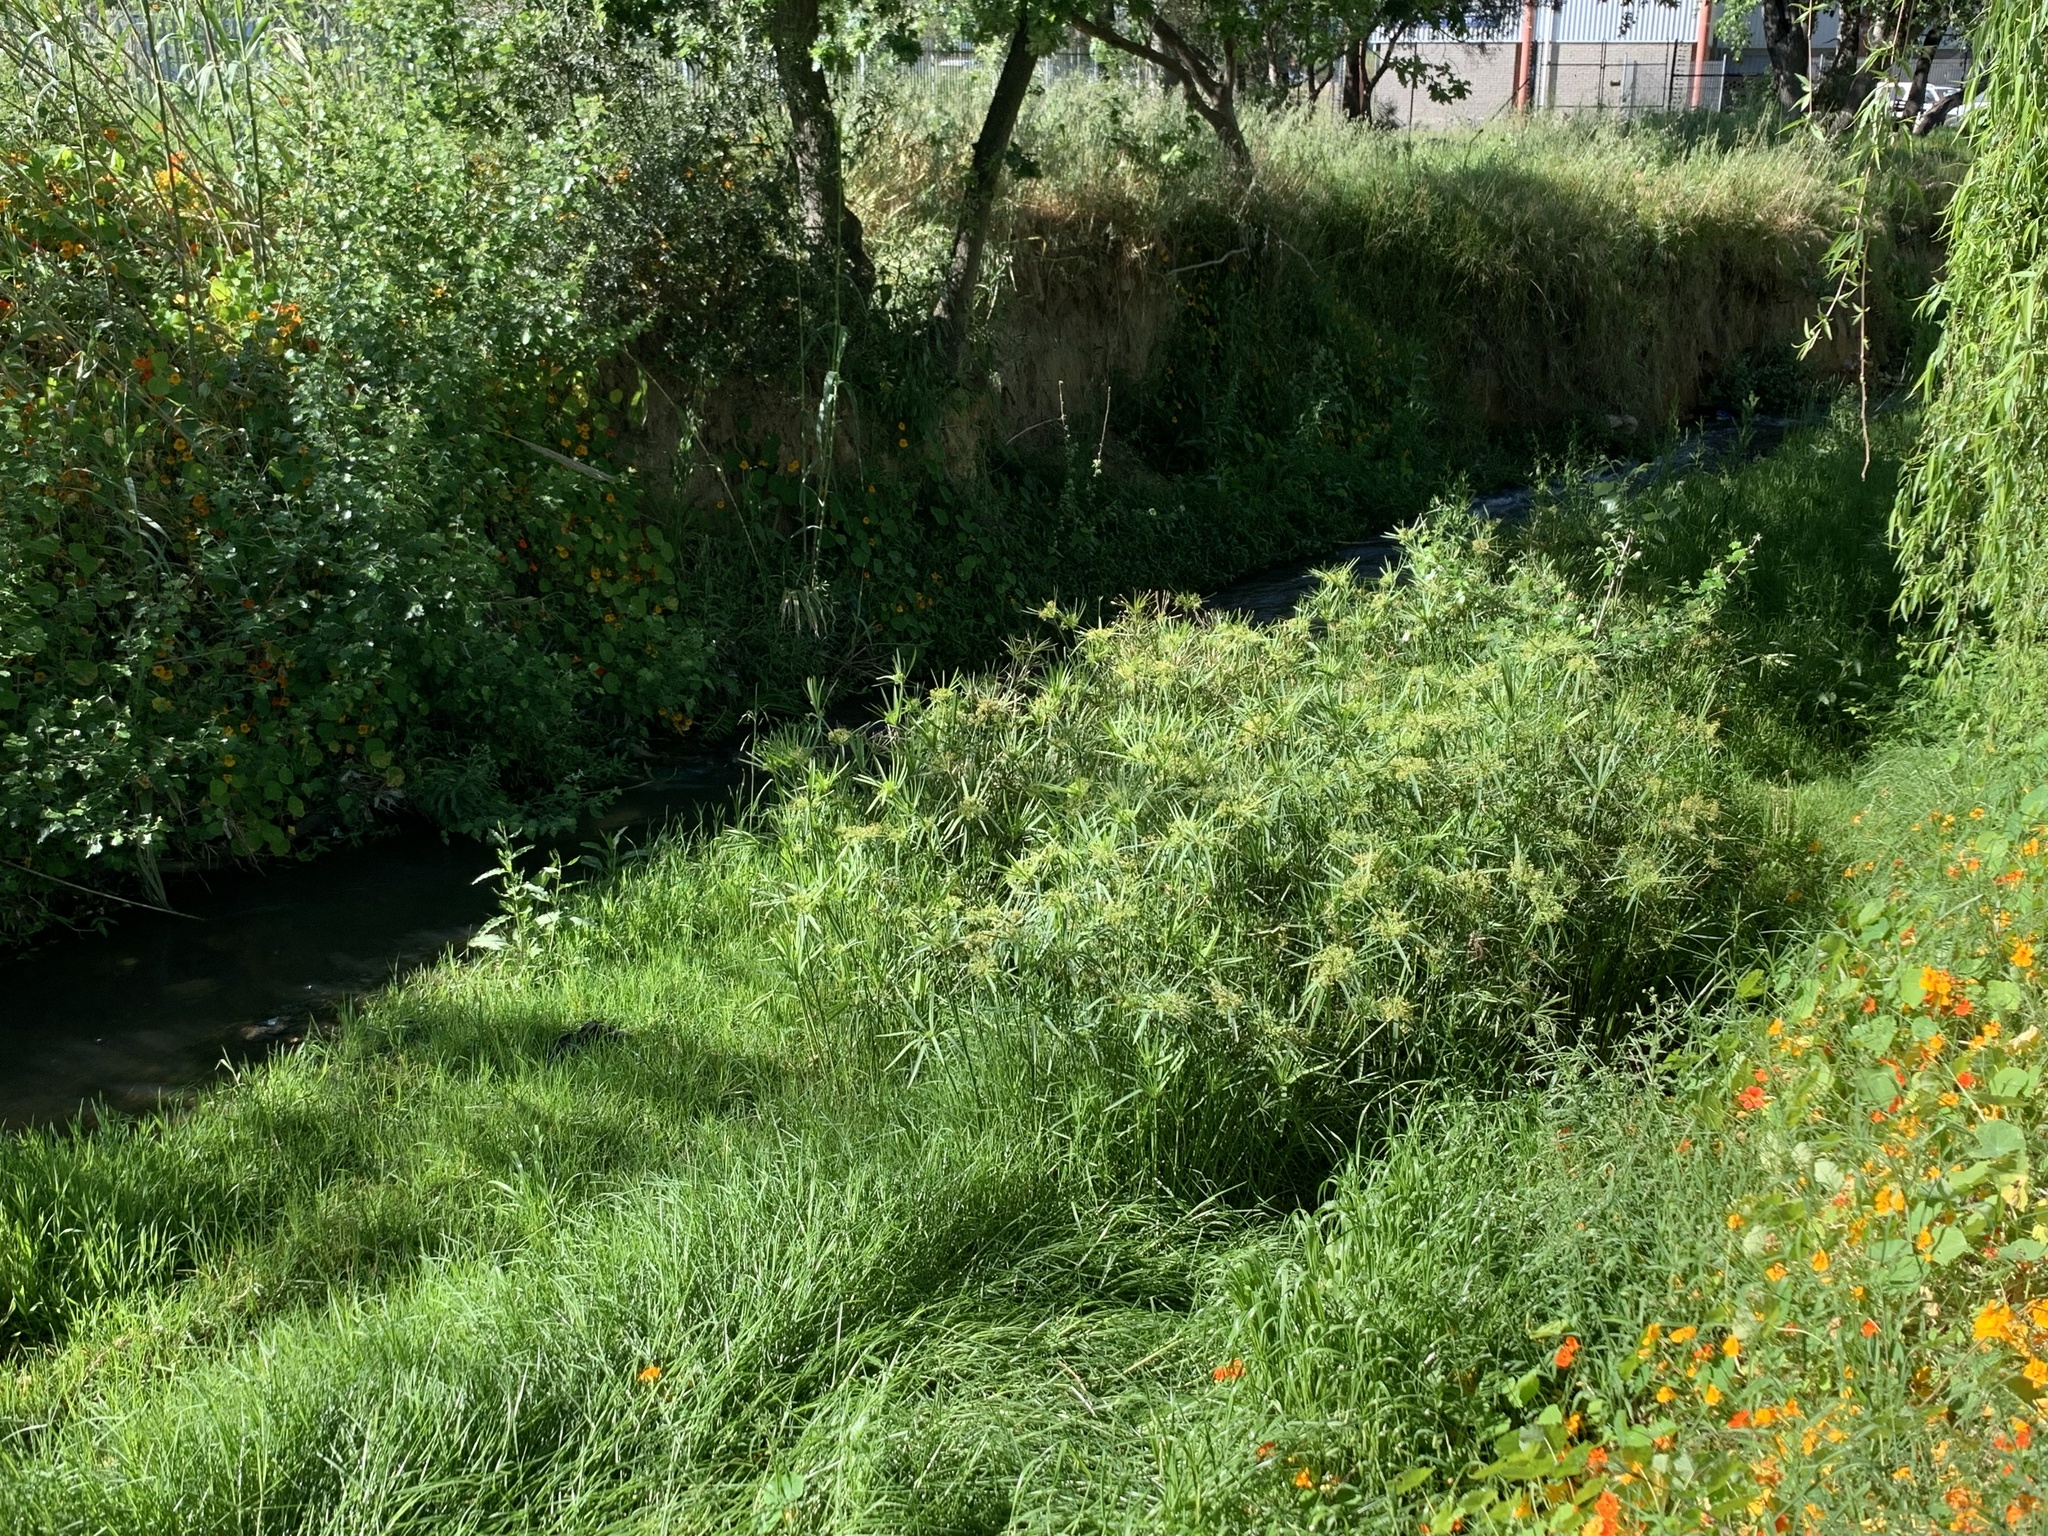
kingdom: Plantae
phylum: Tracheophyta
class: Liliopsida
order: Poales
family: Cyperaceae
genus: Cyperus
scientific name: Cyperus textilis
